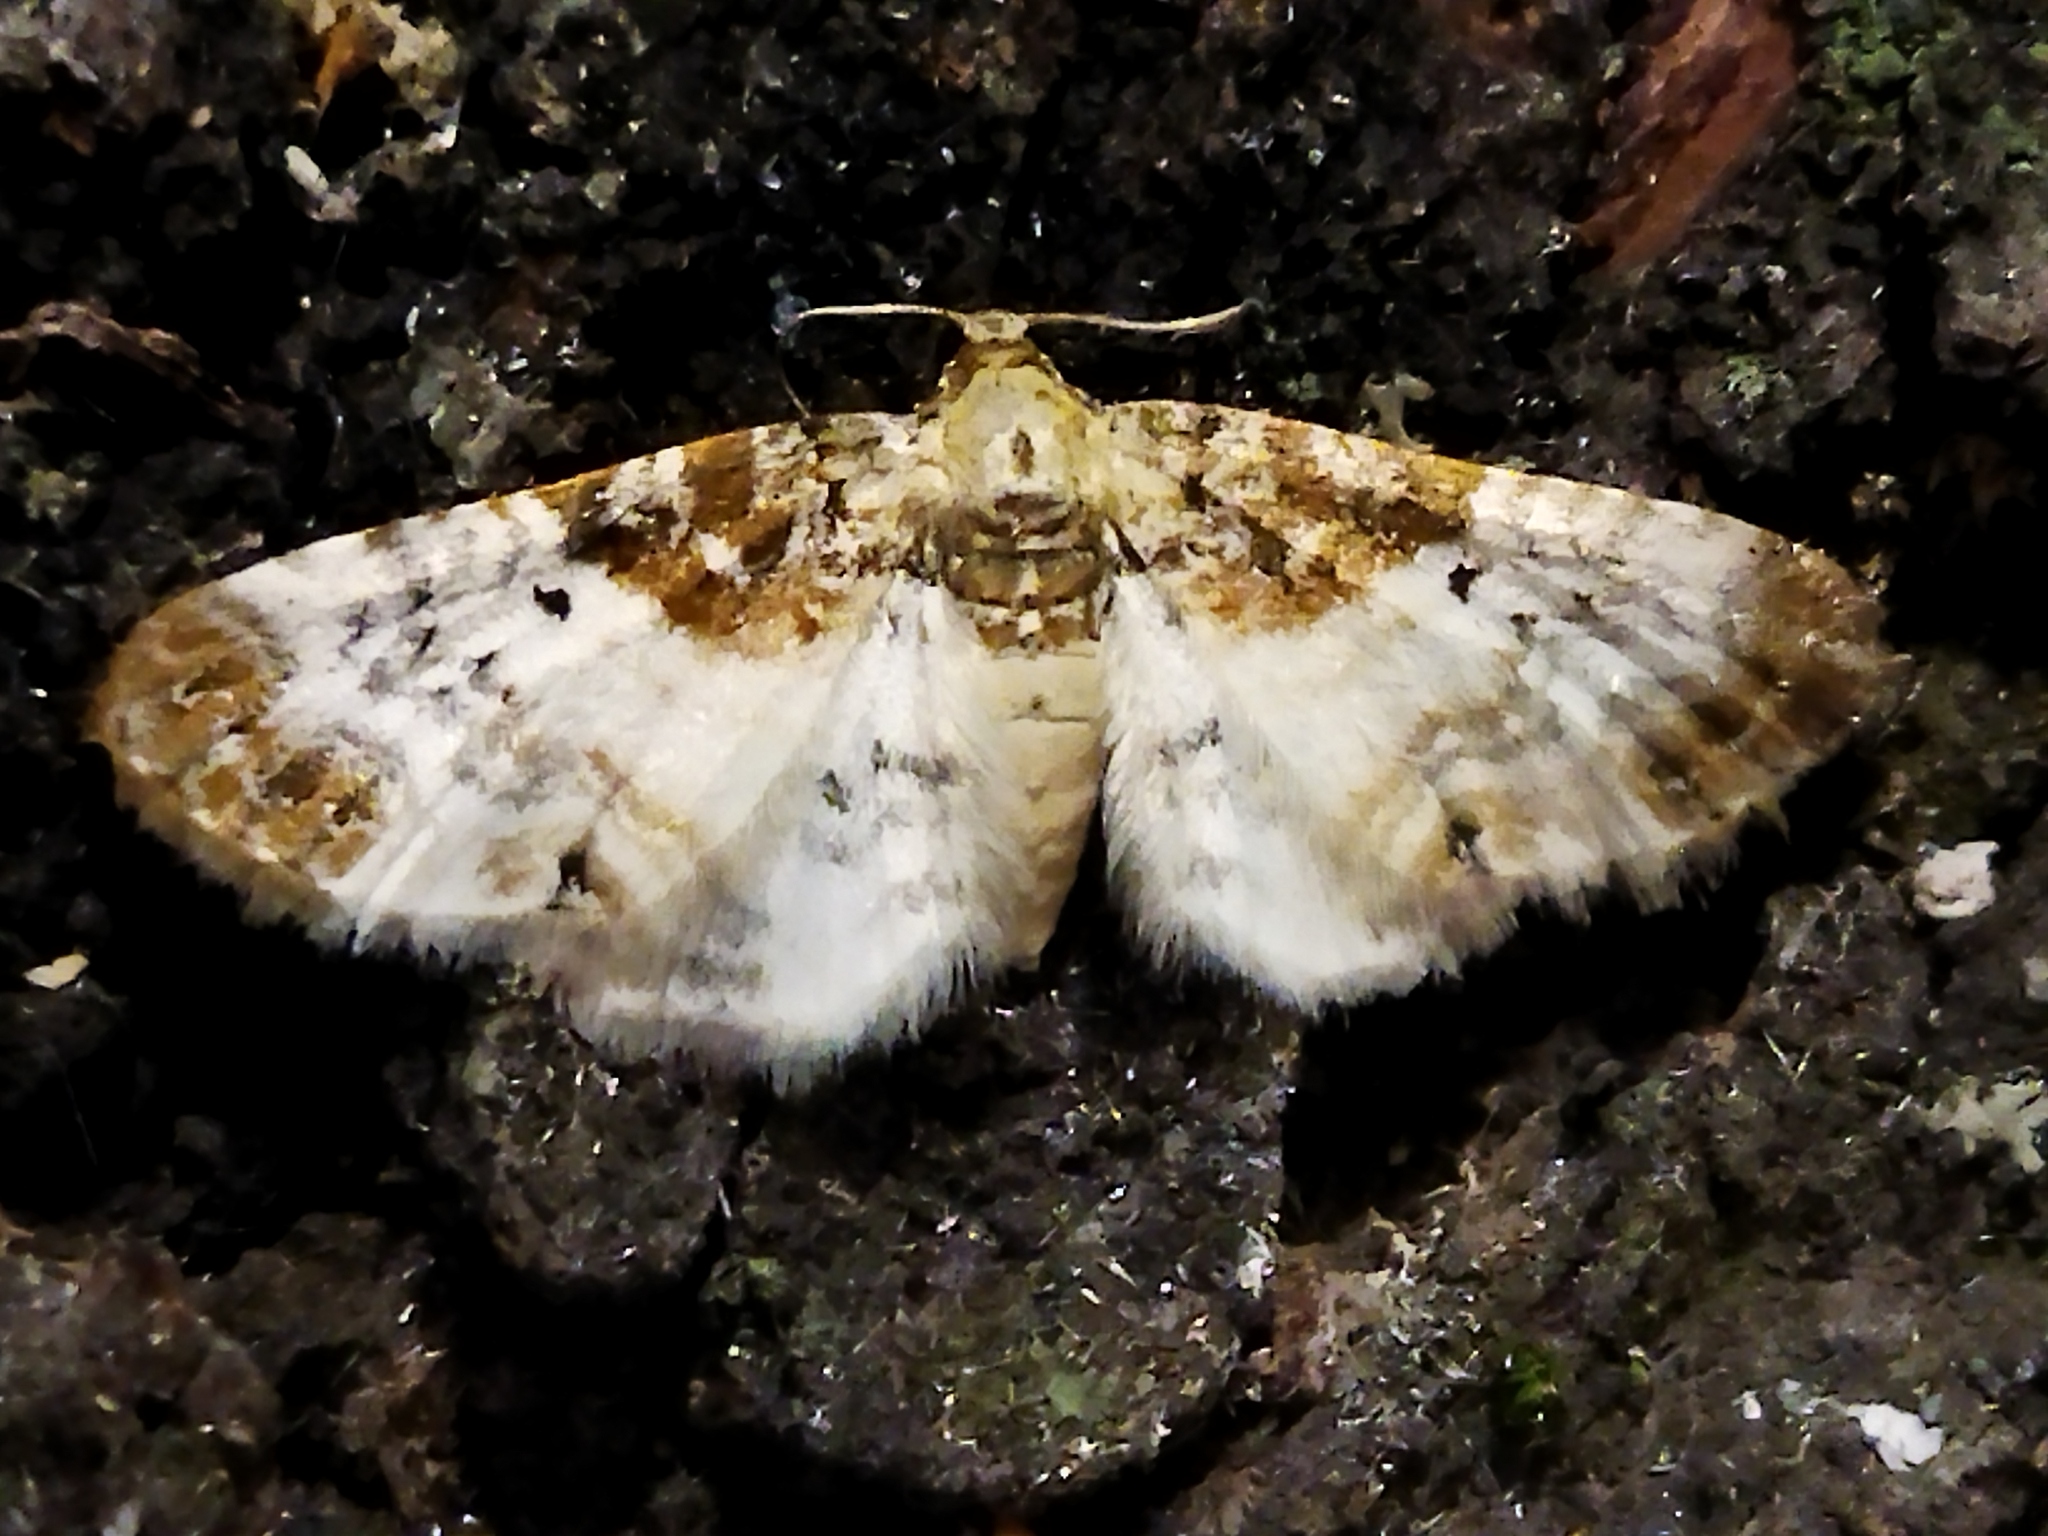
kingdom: Animalia
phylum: Arthropoda
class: Insecta
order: Lepidoptera
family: Geometridae
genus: Eupithecia
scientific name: Eupithecia breviculata
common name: Rusty-shouldered pug
